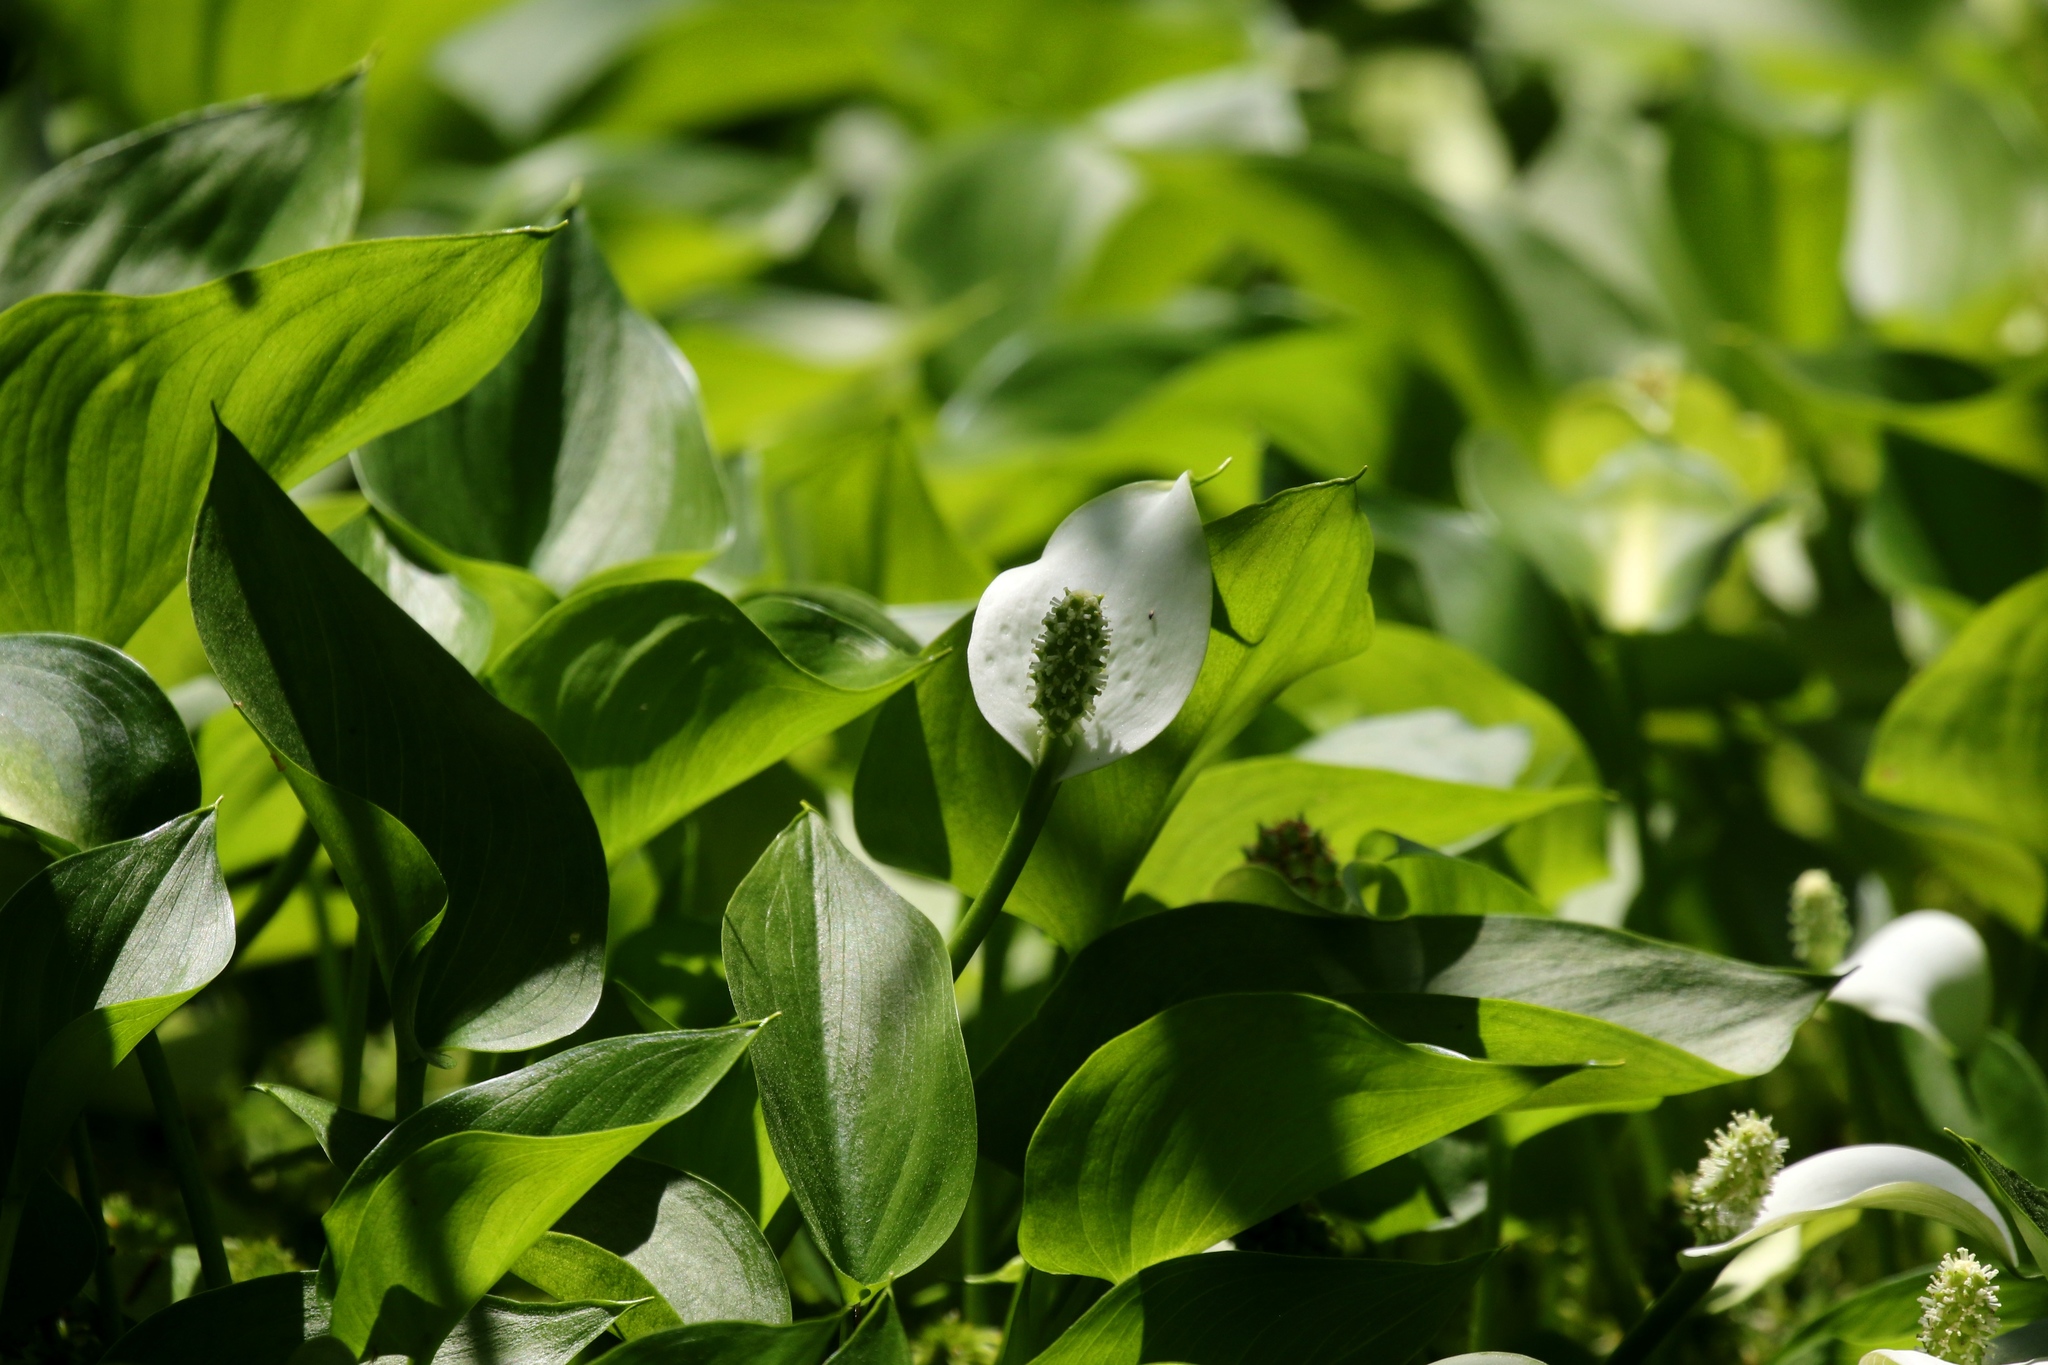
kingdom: Plantae
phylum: Tracheophyta
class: Liliopsida
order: Alismatales
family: Araceae
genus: Calla
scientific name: Calla palustris
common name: Bog arum
